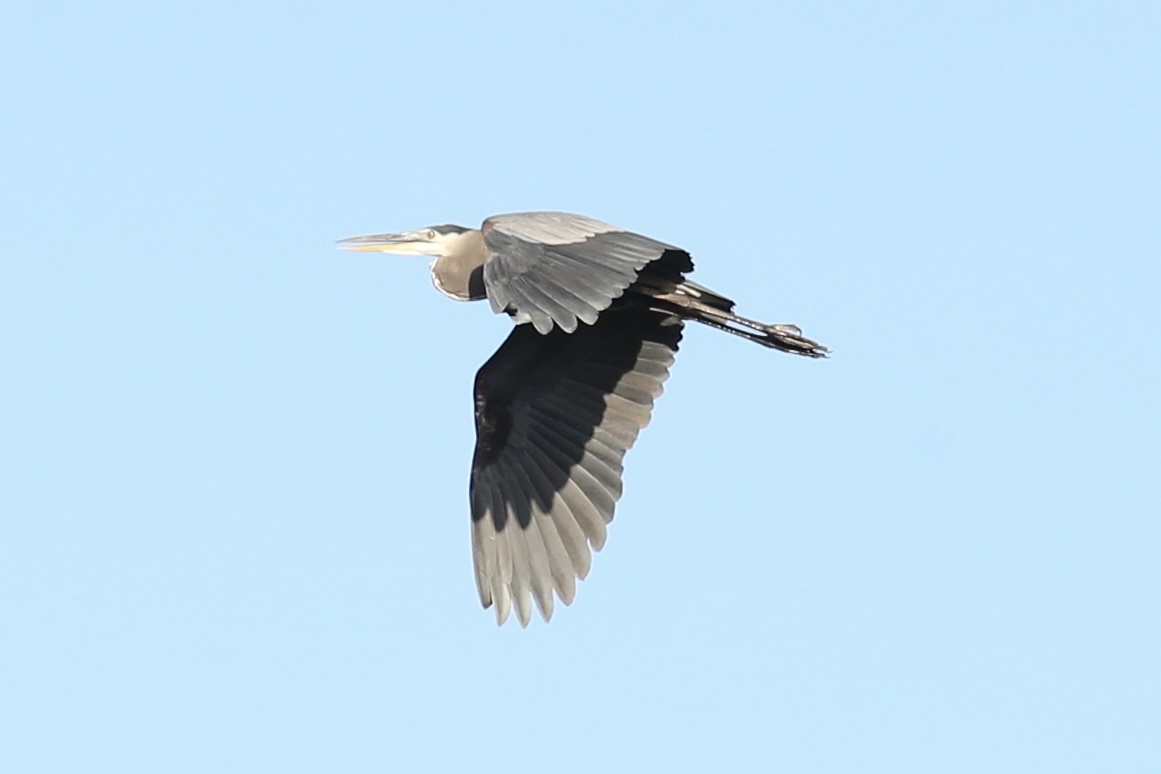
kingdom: Animalia
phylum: Chordata
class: Aves
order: Pelecaniformes
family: Ardeidae
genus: Ardea
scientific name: Ardea herodias
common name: Great blue heron
